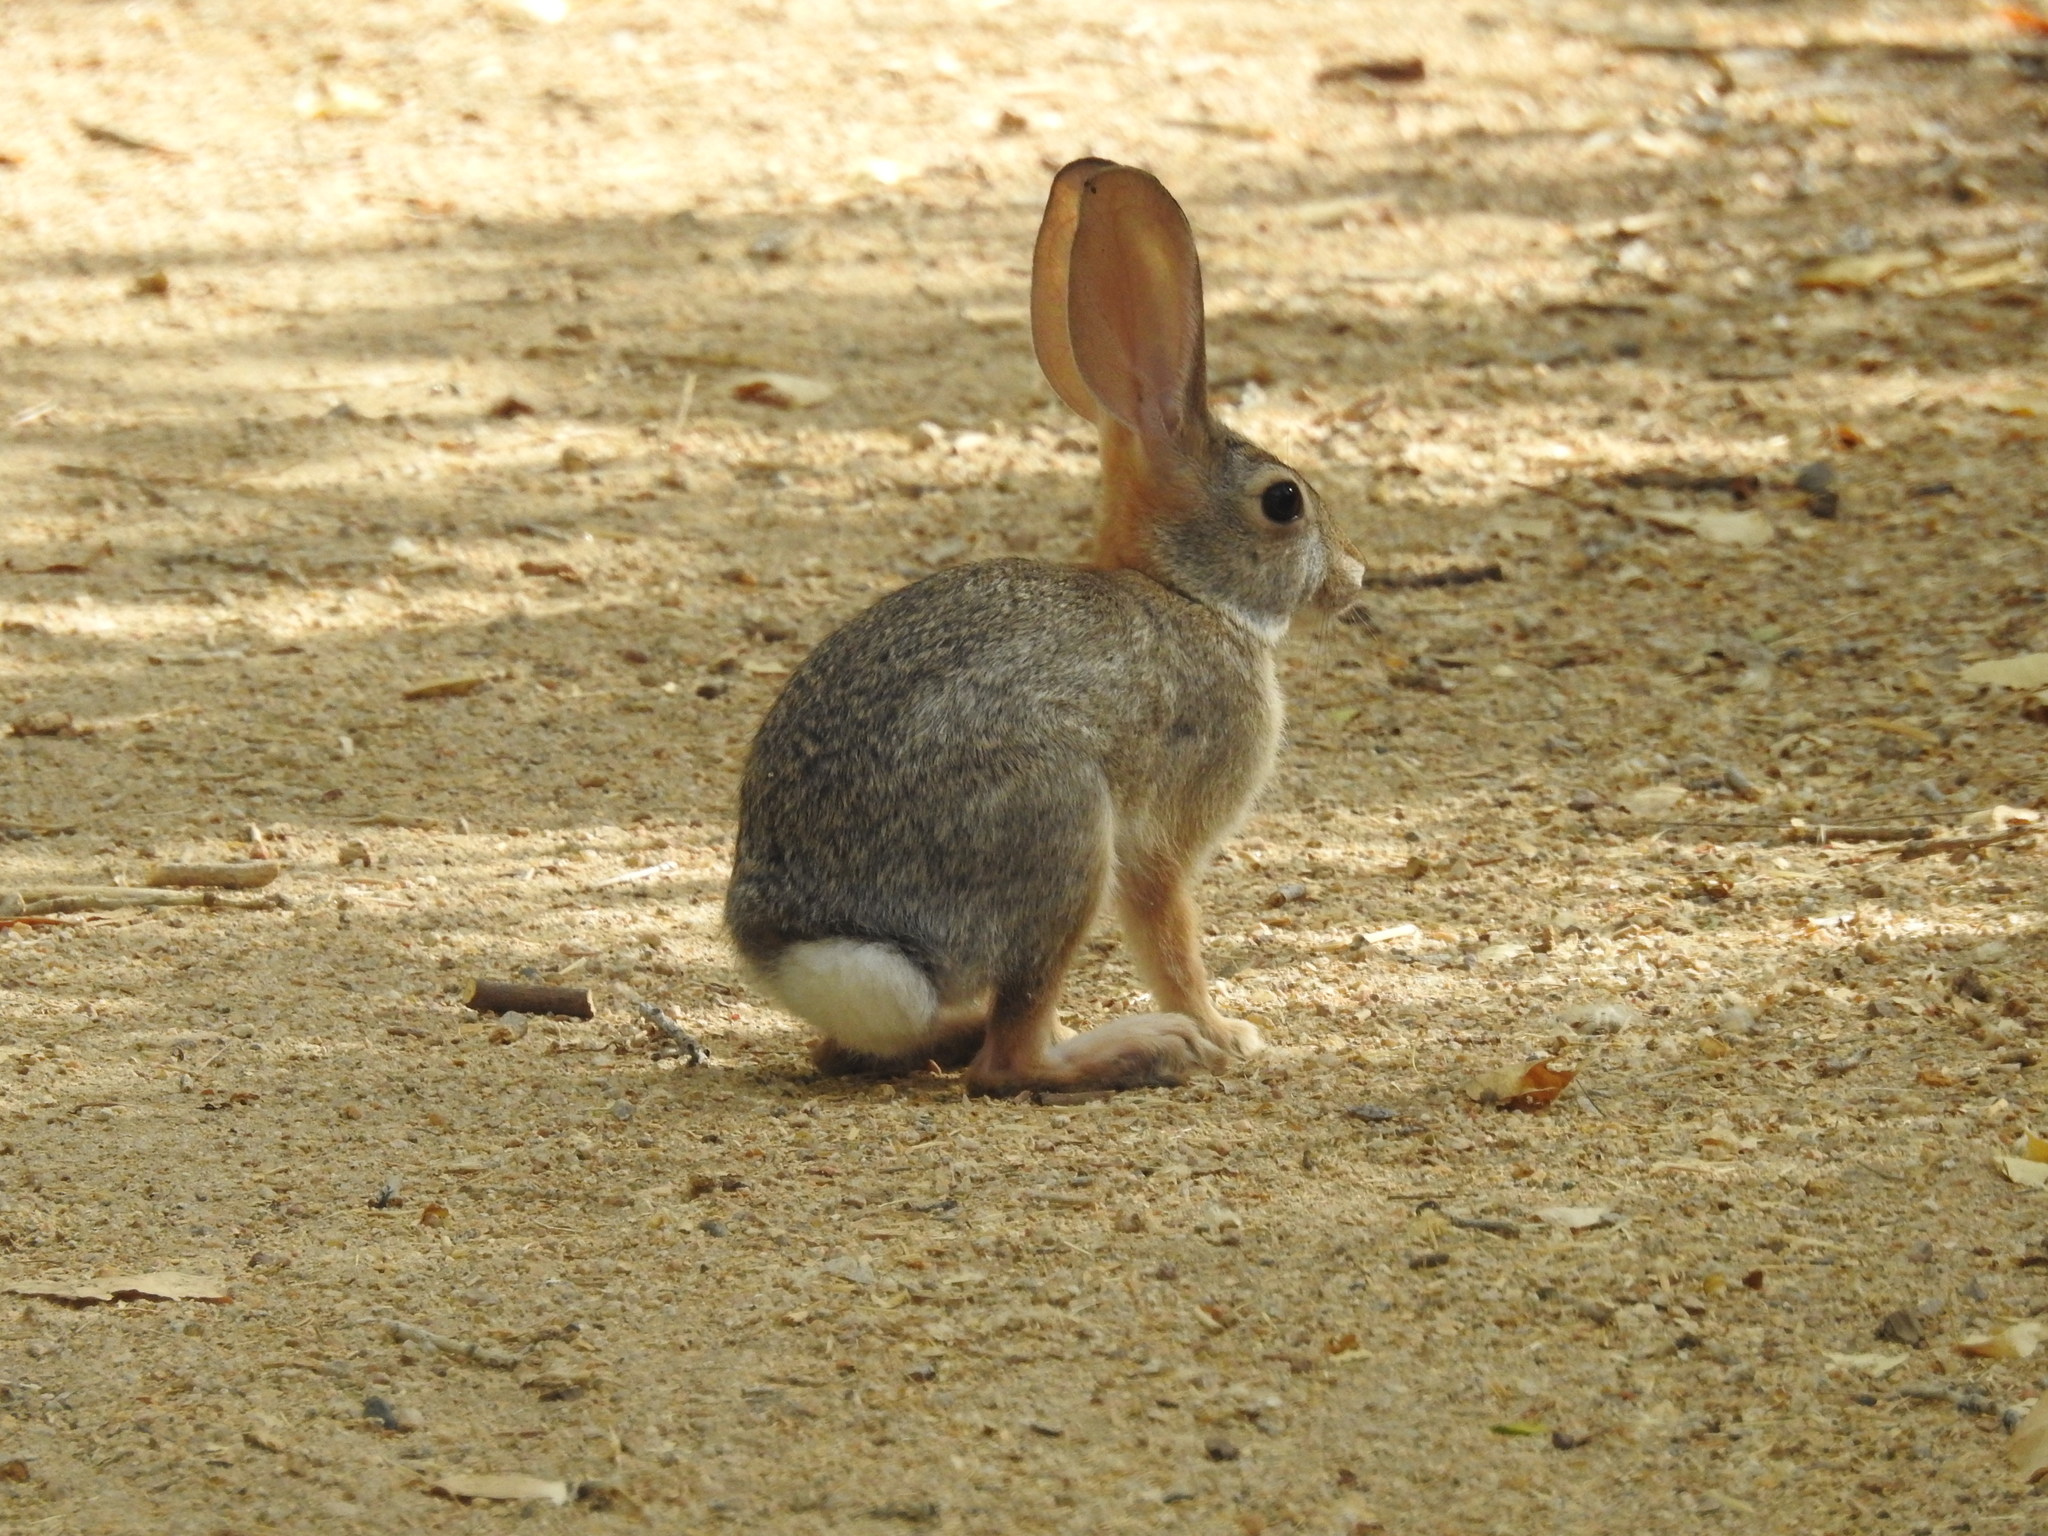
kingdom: Animalia
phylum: Chordata
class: Mammalia
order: Lagomorpha
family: Leporidae
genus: Sylvilagus
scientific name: Sylvilagus audubonii
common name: Desert cottontail
